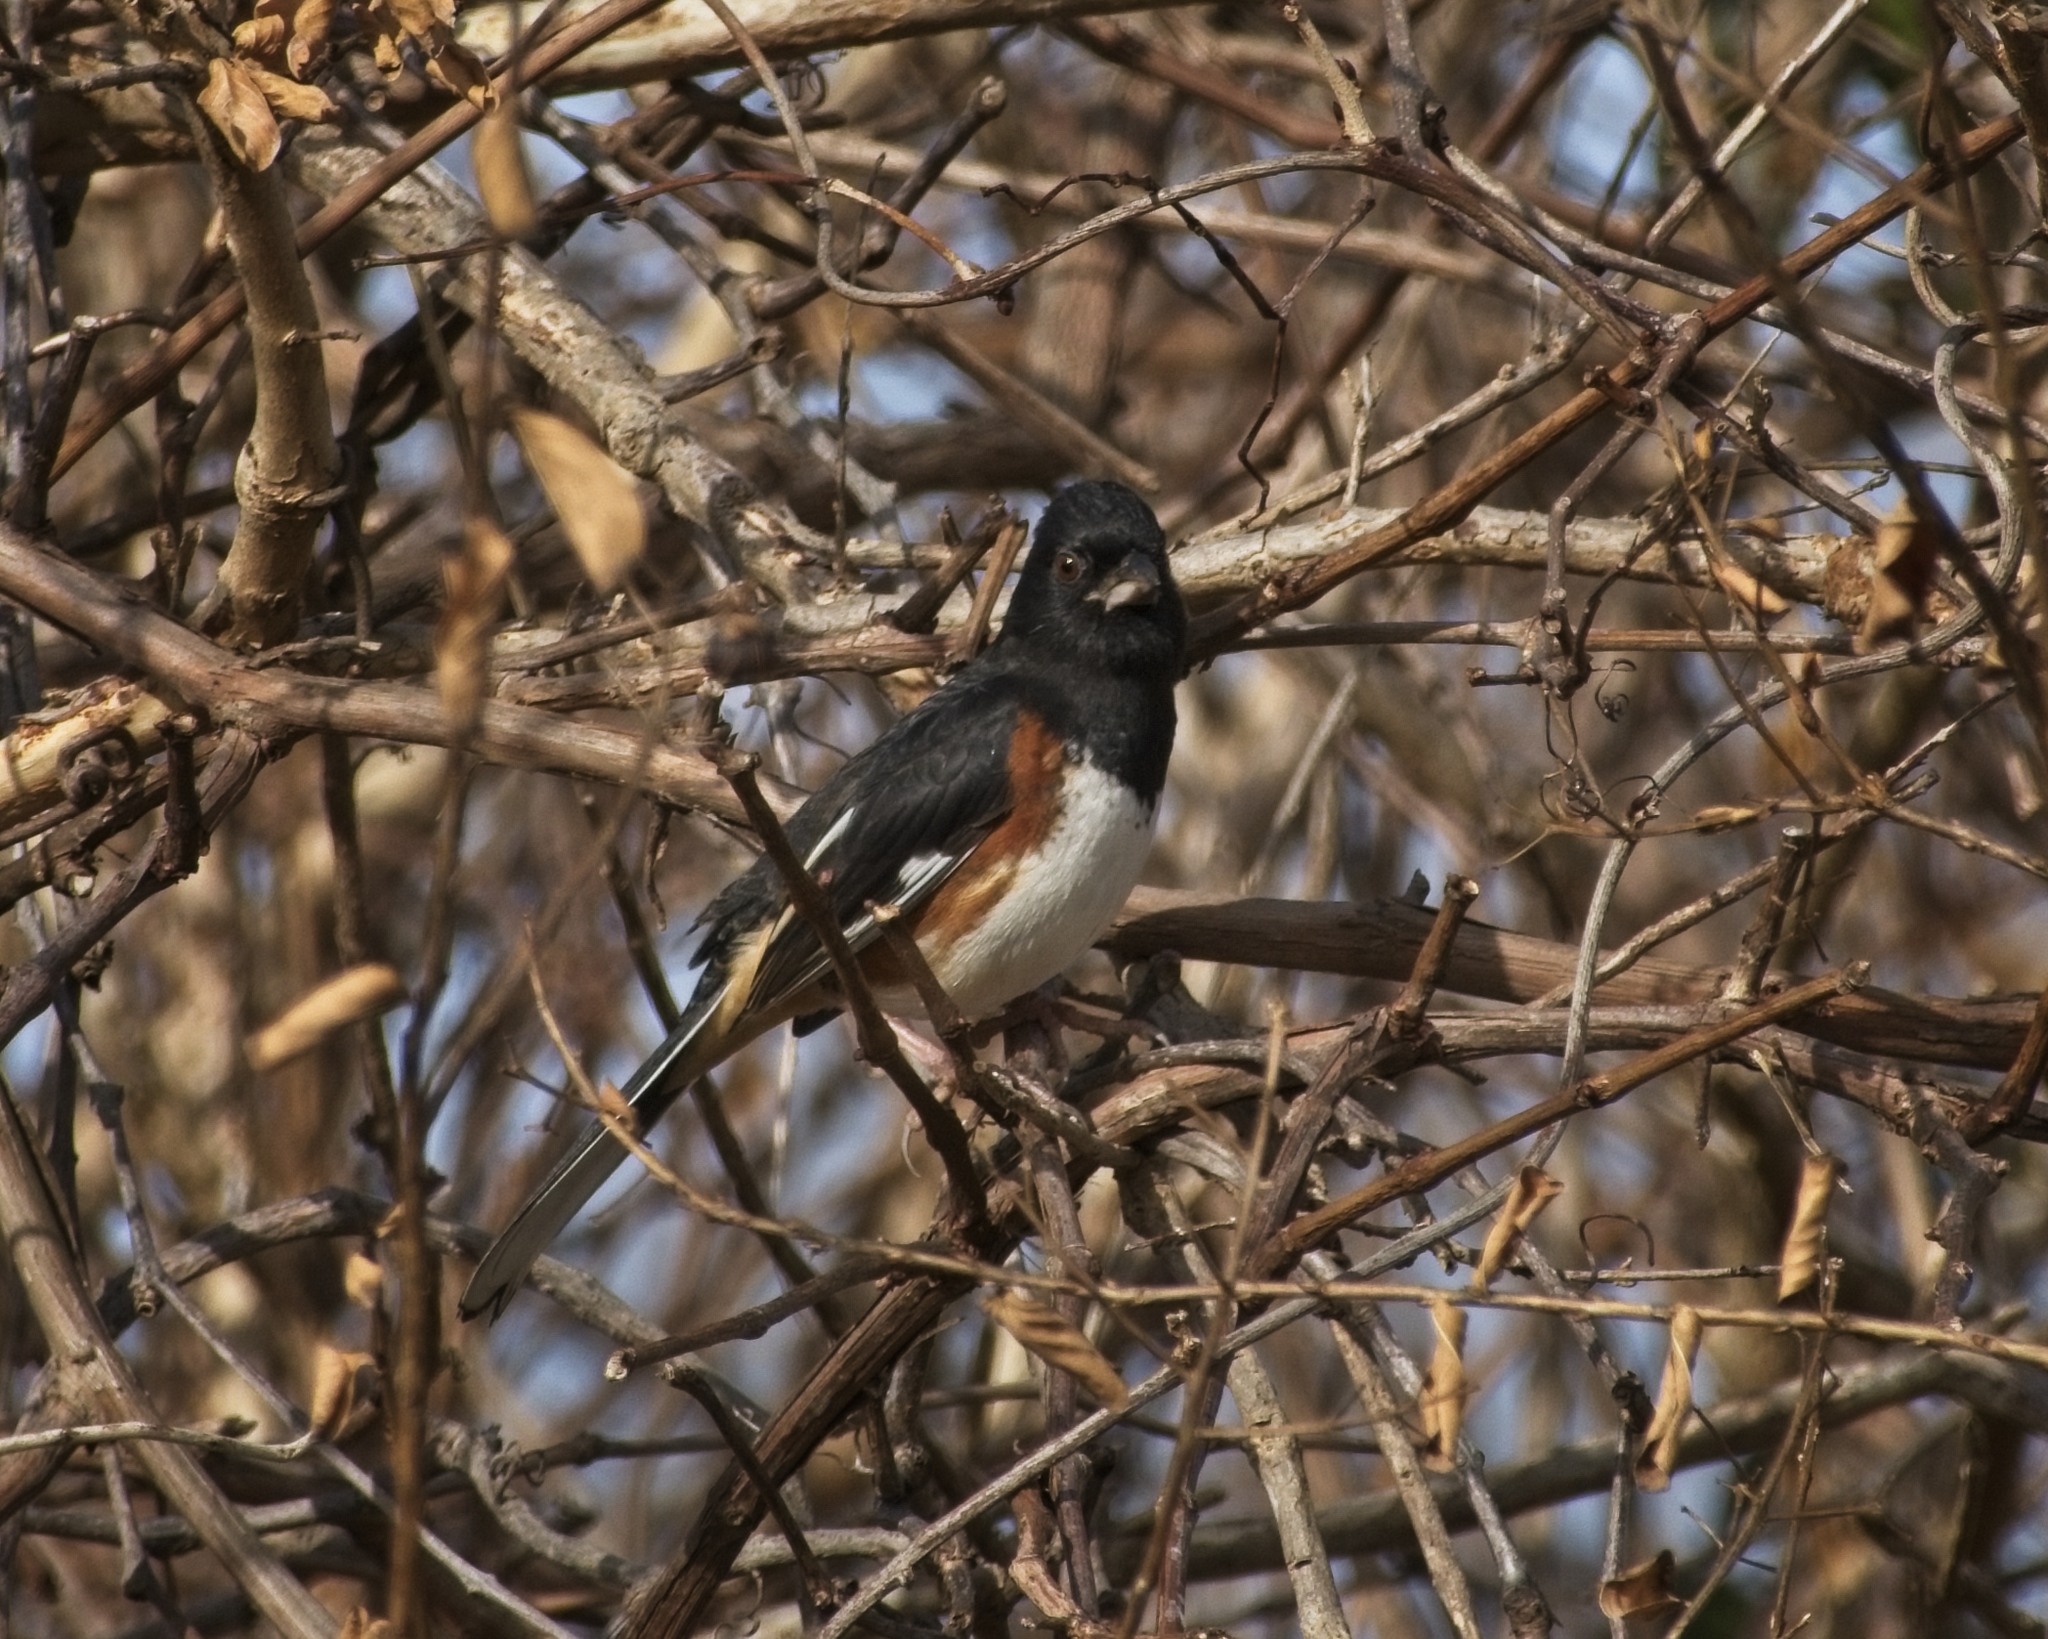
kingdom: Animalia
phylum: Chordata
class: Aves
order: Passeriformes
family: Passerellidae
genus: Pipilo
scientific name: Pipilo erythrophthalmus
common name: Eastern towhee
